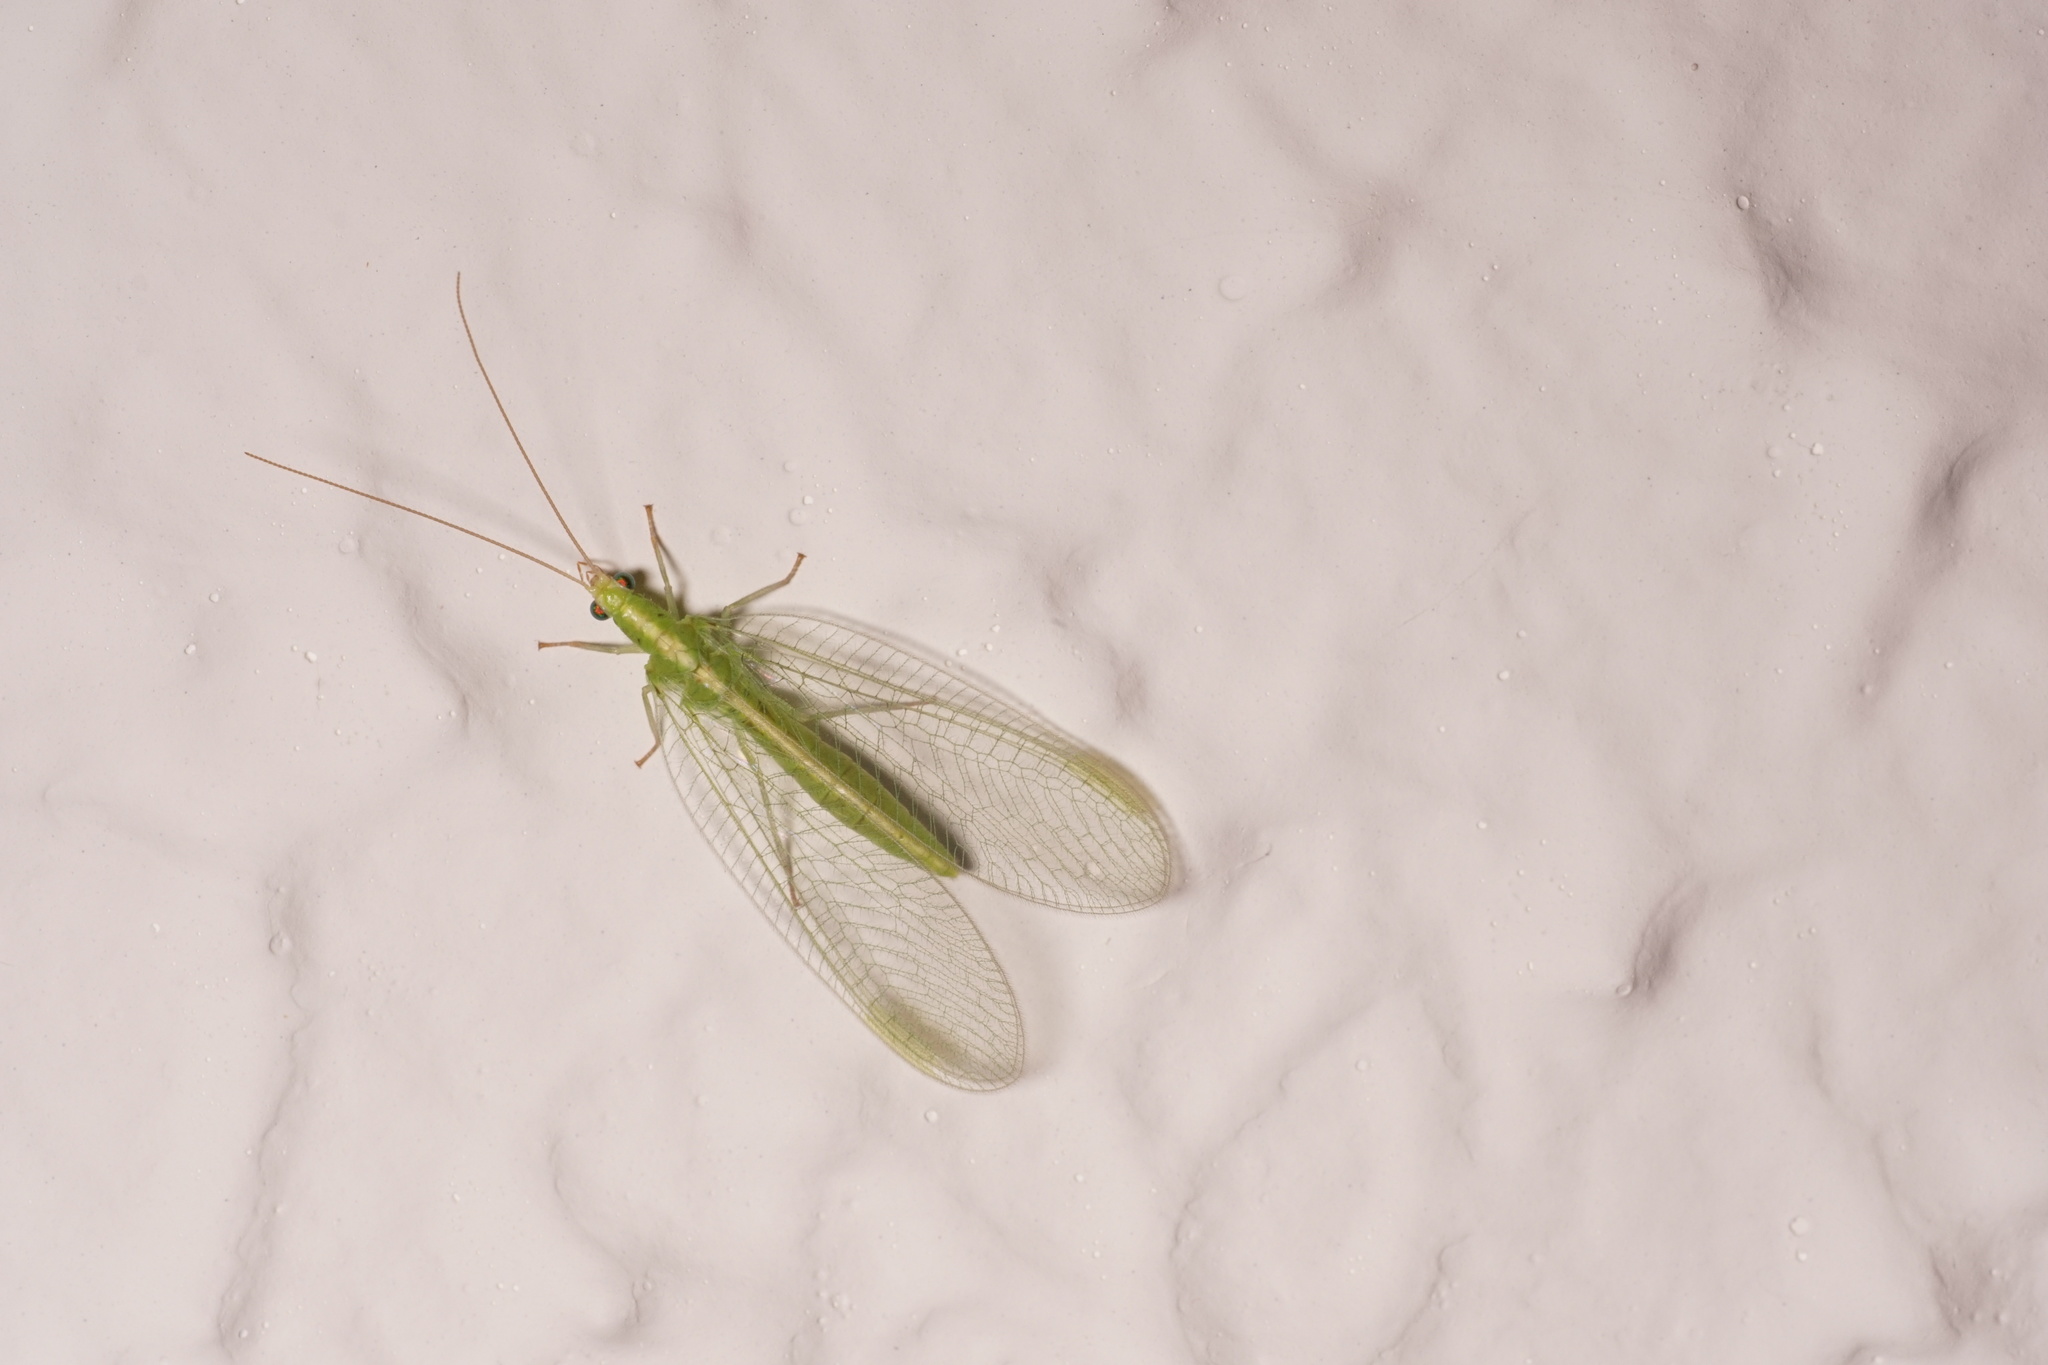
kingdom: Animalia
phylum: Arthropoda
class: Insecta
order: Neuroptera
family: Chrysopidae
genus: Chrysoperla
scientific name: Chrysoperla
